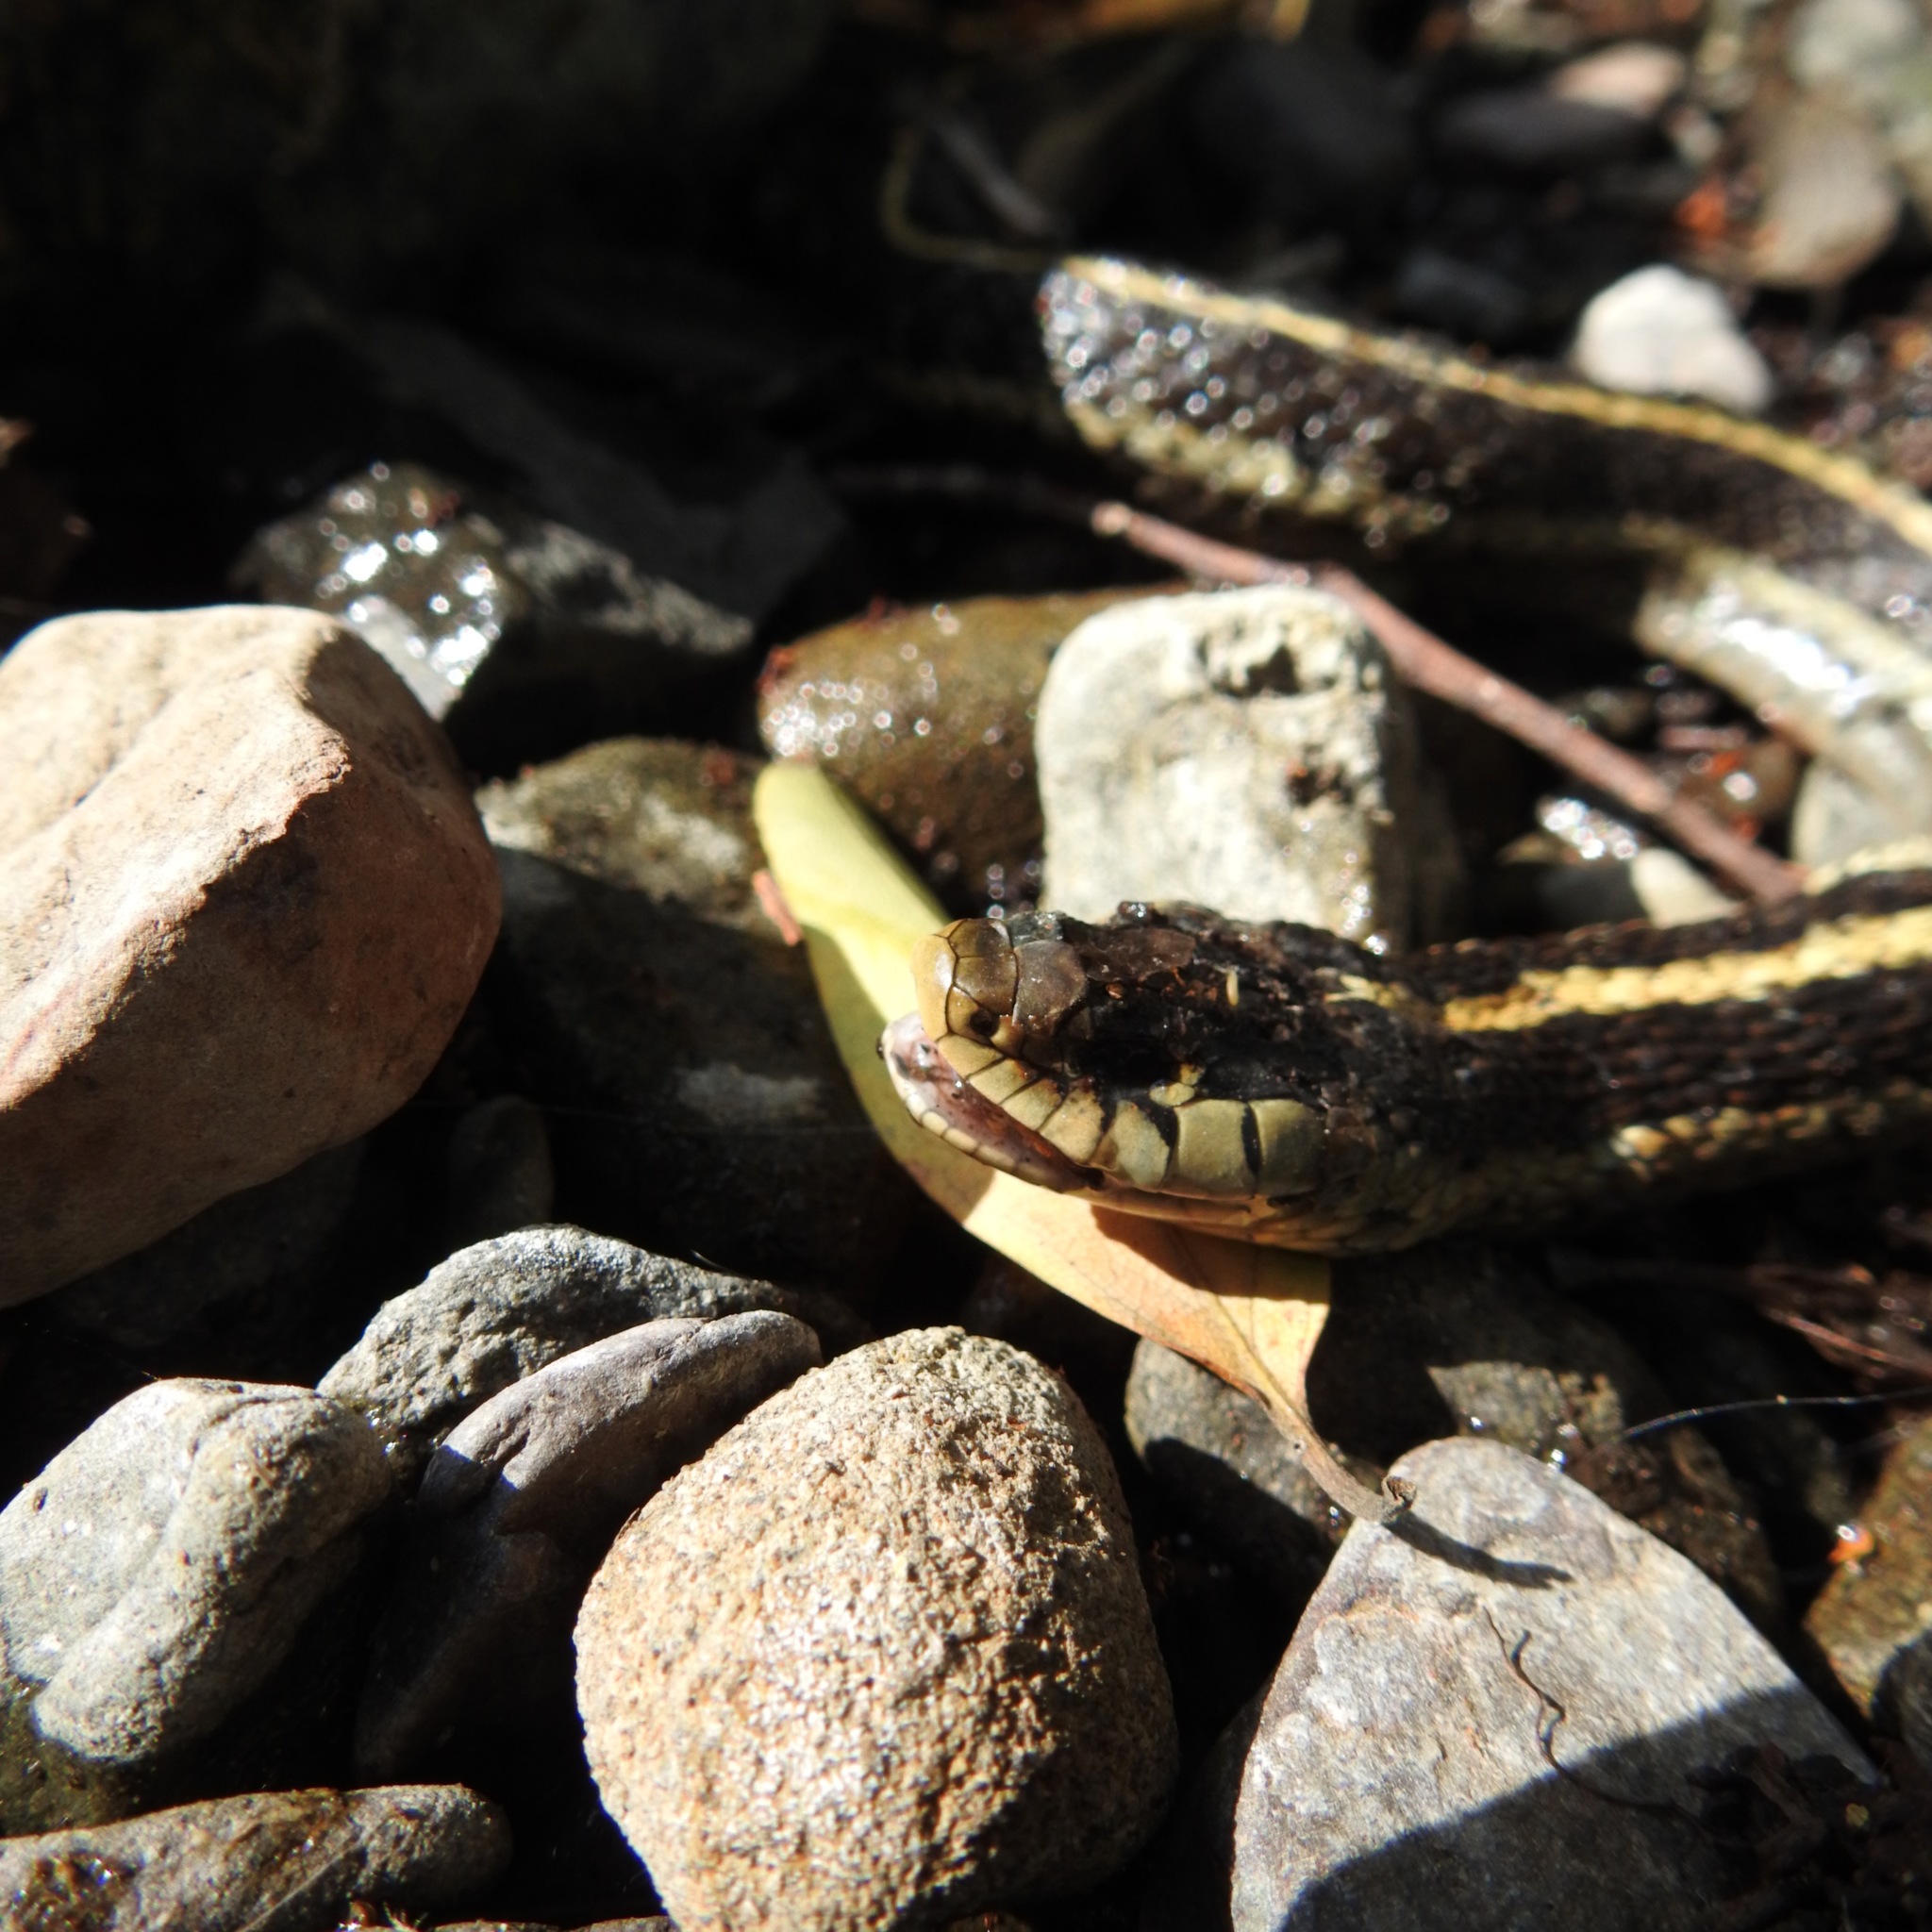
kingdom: Animalia
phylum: Chordata
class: Squamata
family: Colubridae
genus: Thamnophis
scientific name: Thamnophis elegans
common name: Western terrestrial garter snake
